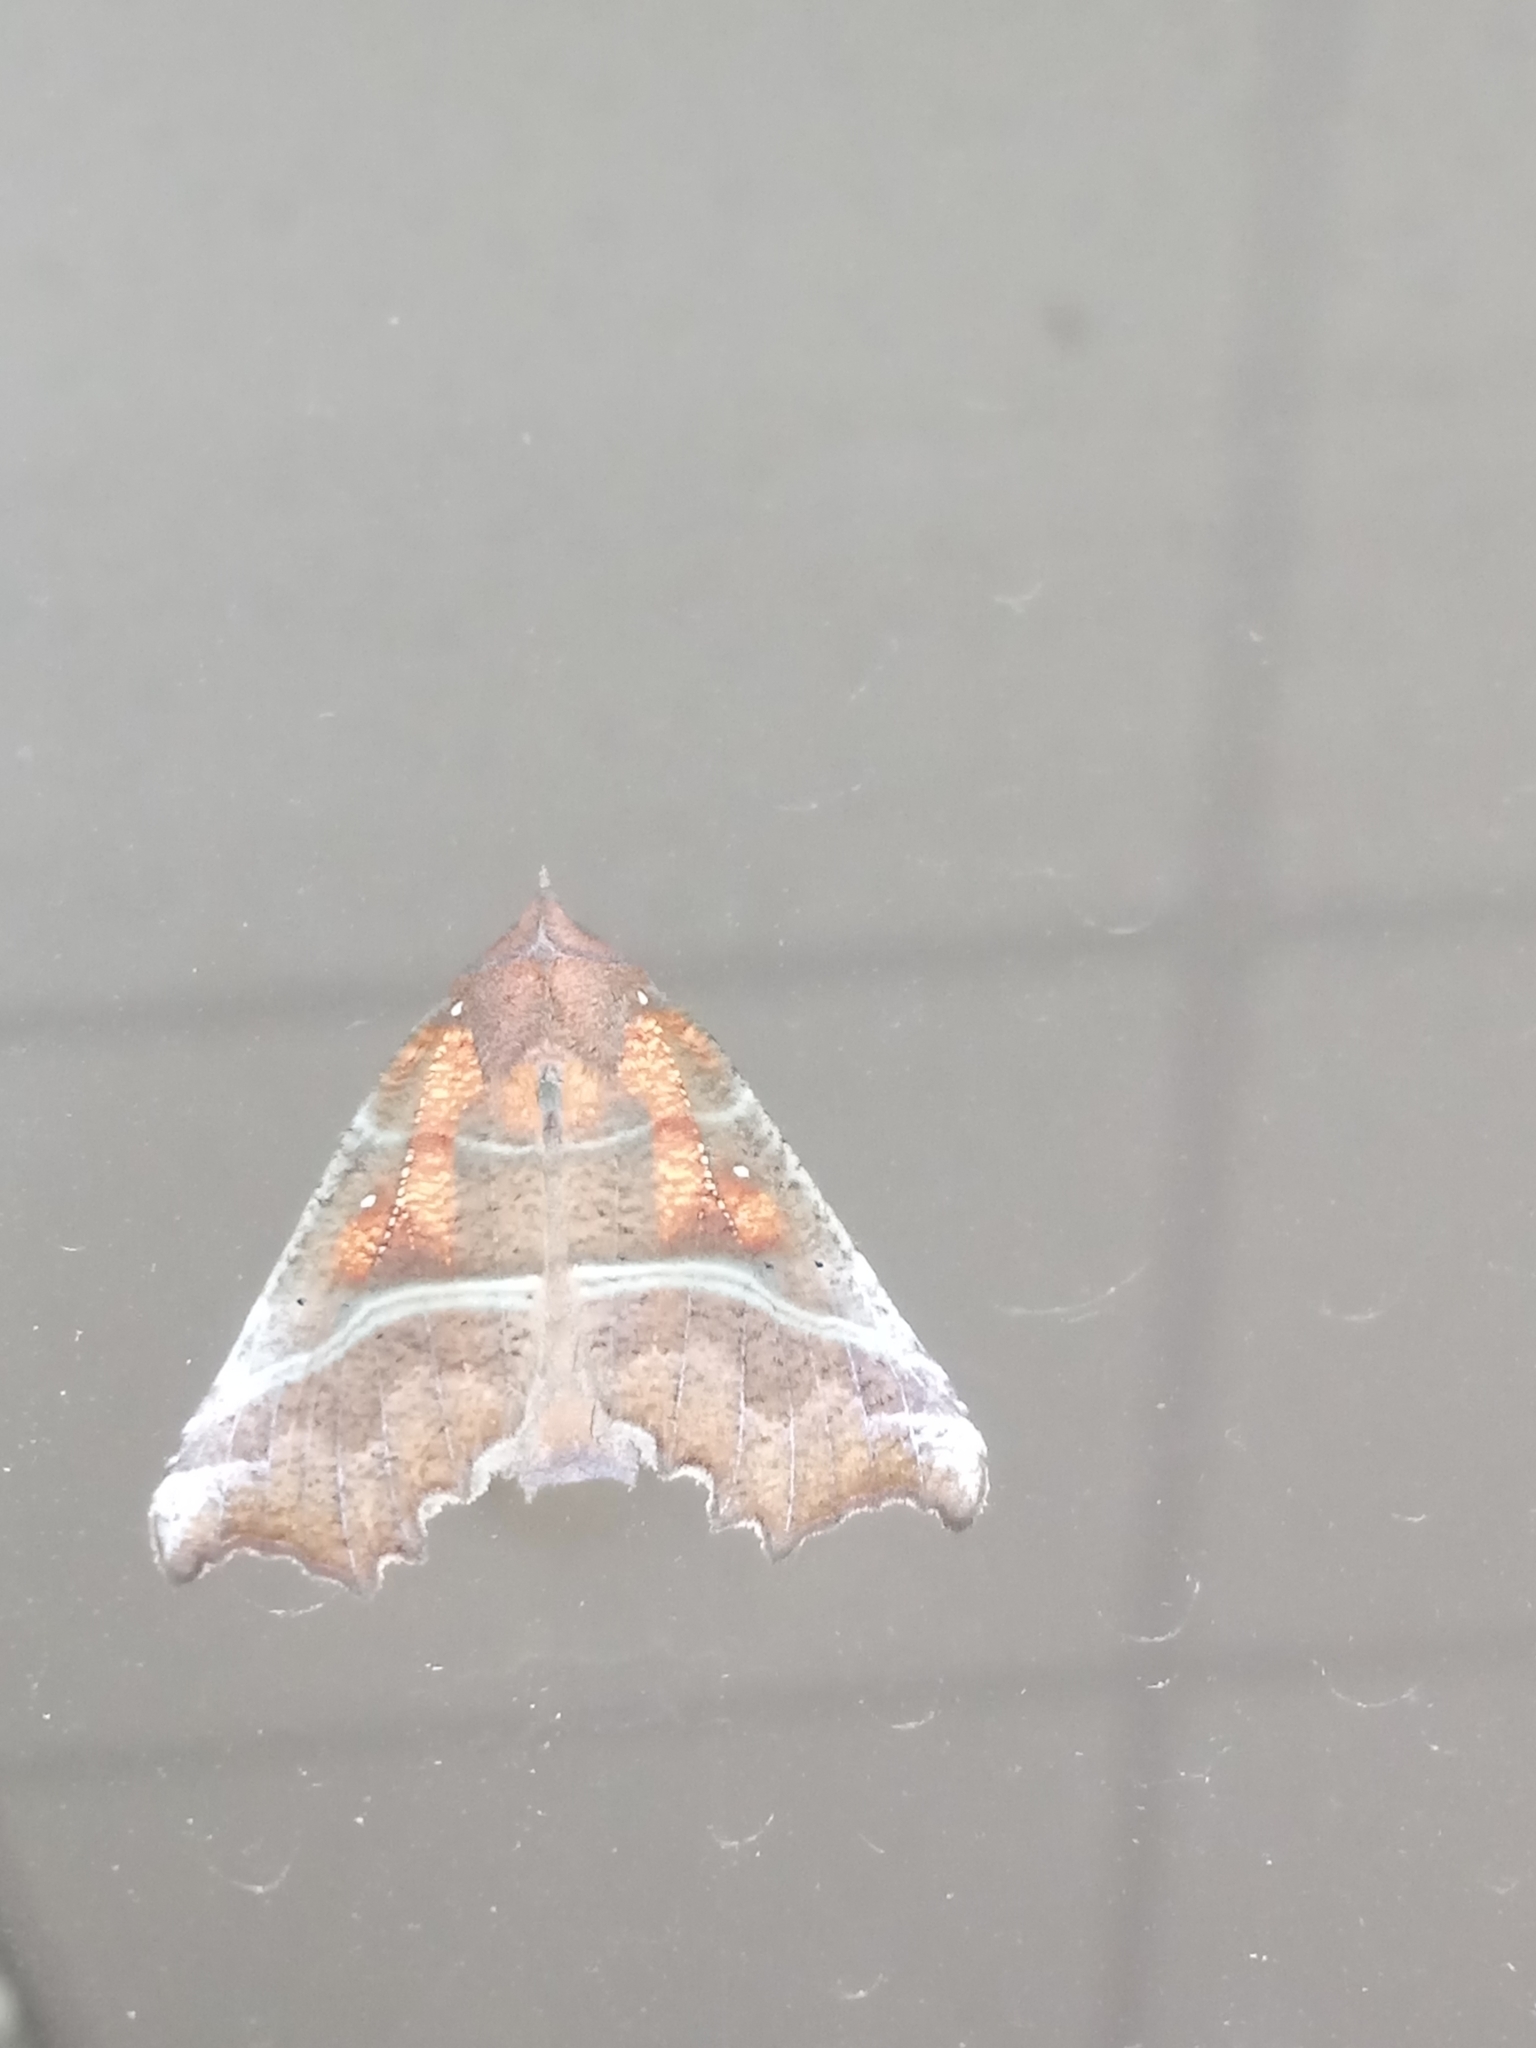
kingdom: Animalia
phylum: Arthropoda
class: Insecta
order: Lepidoptera
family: Erebidae
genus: Scoliopteryx
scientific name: Scoliopteryx libatrix
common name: Herald
